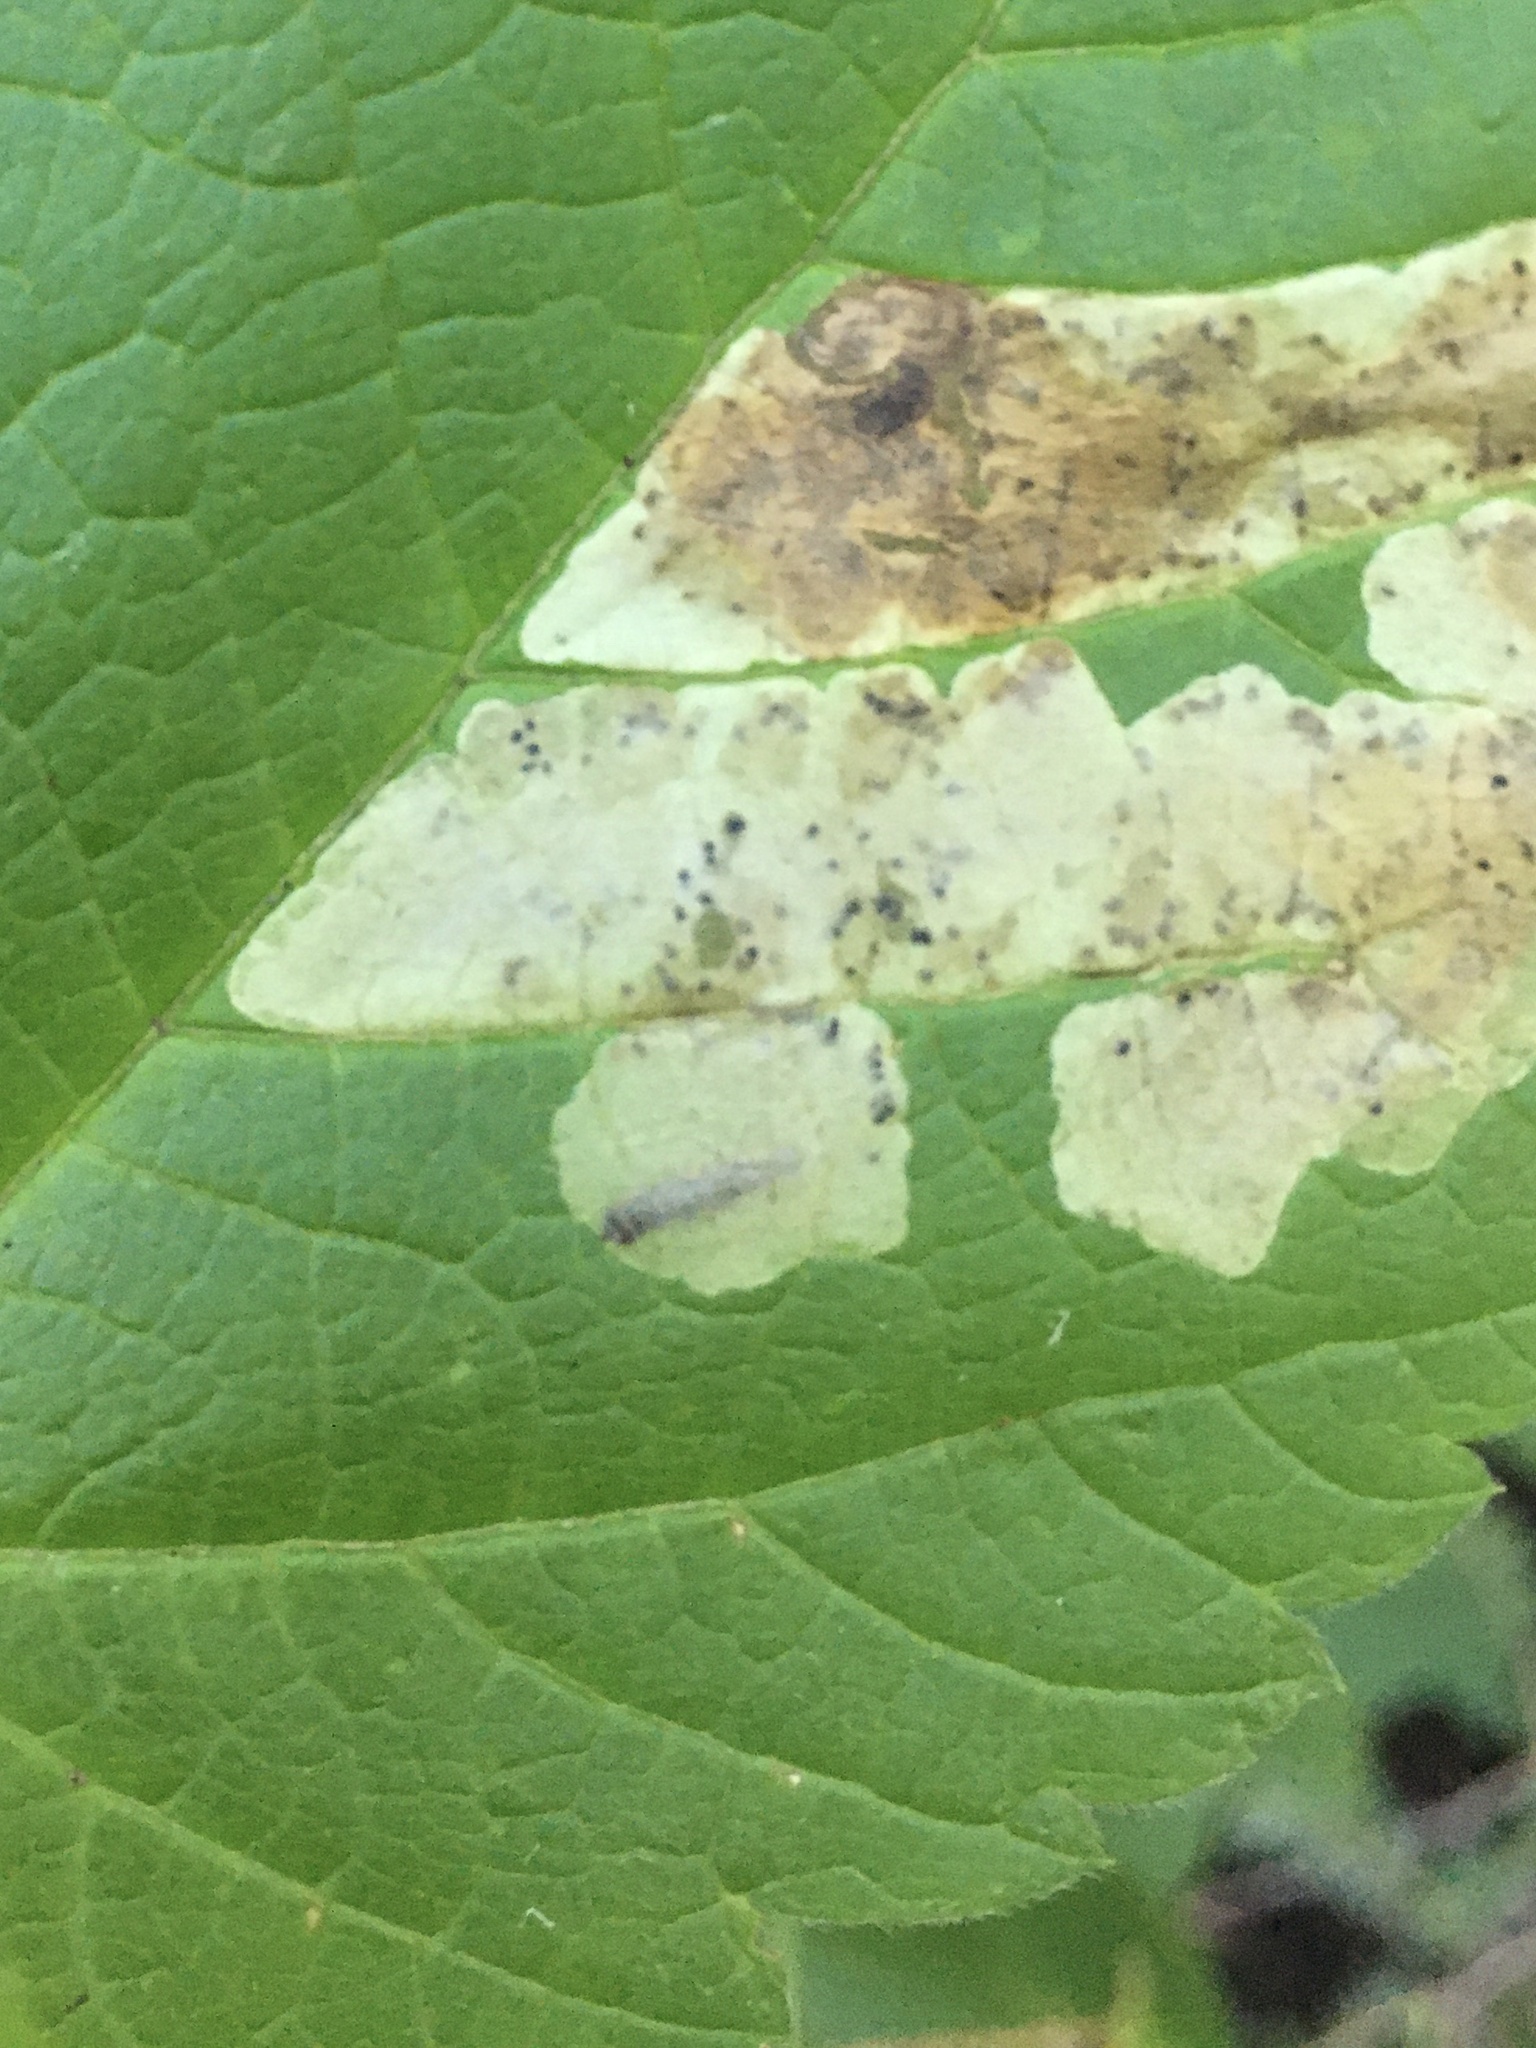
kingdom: Animalia
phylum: Arthropoda
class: Insecta
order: Lepidoptera
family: Gracillariidae
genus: Cameraria
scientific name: Cameraria aceriella
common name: Maple leafblotch miner
